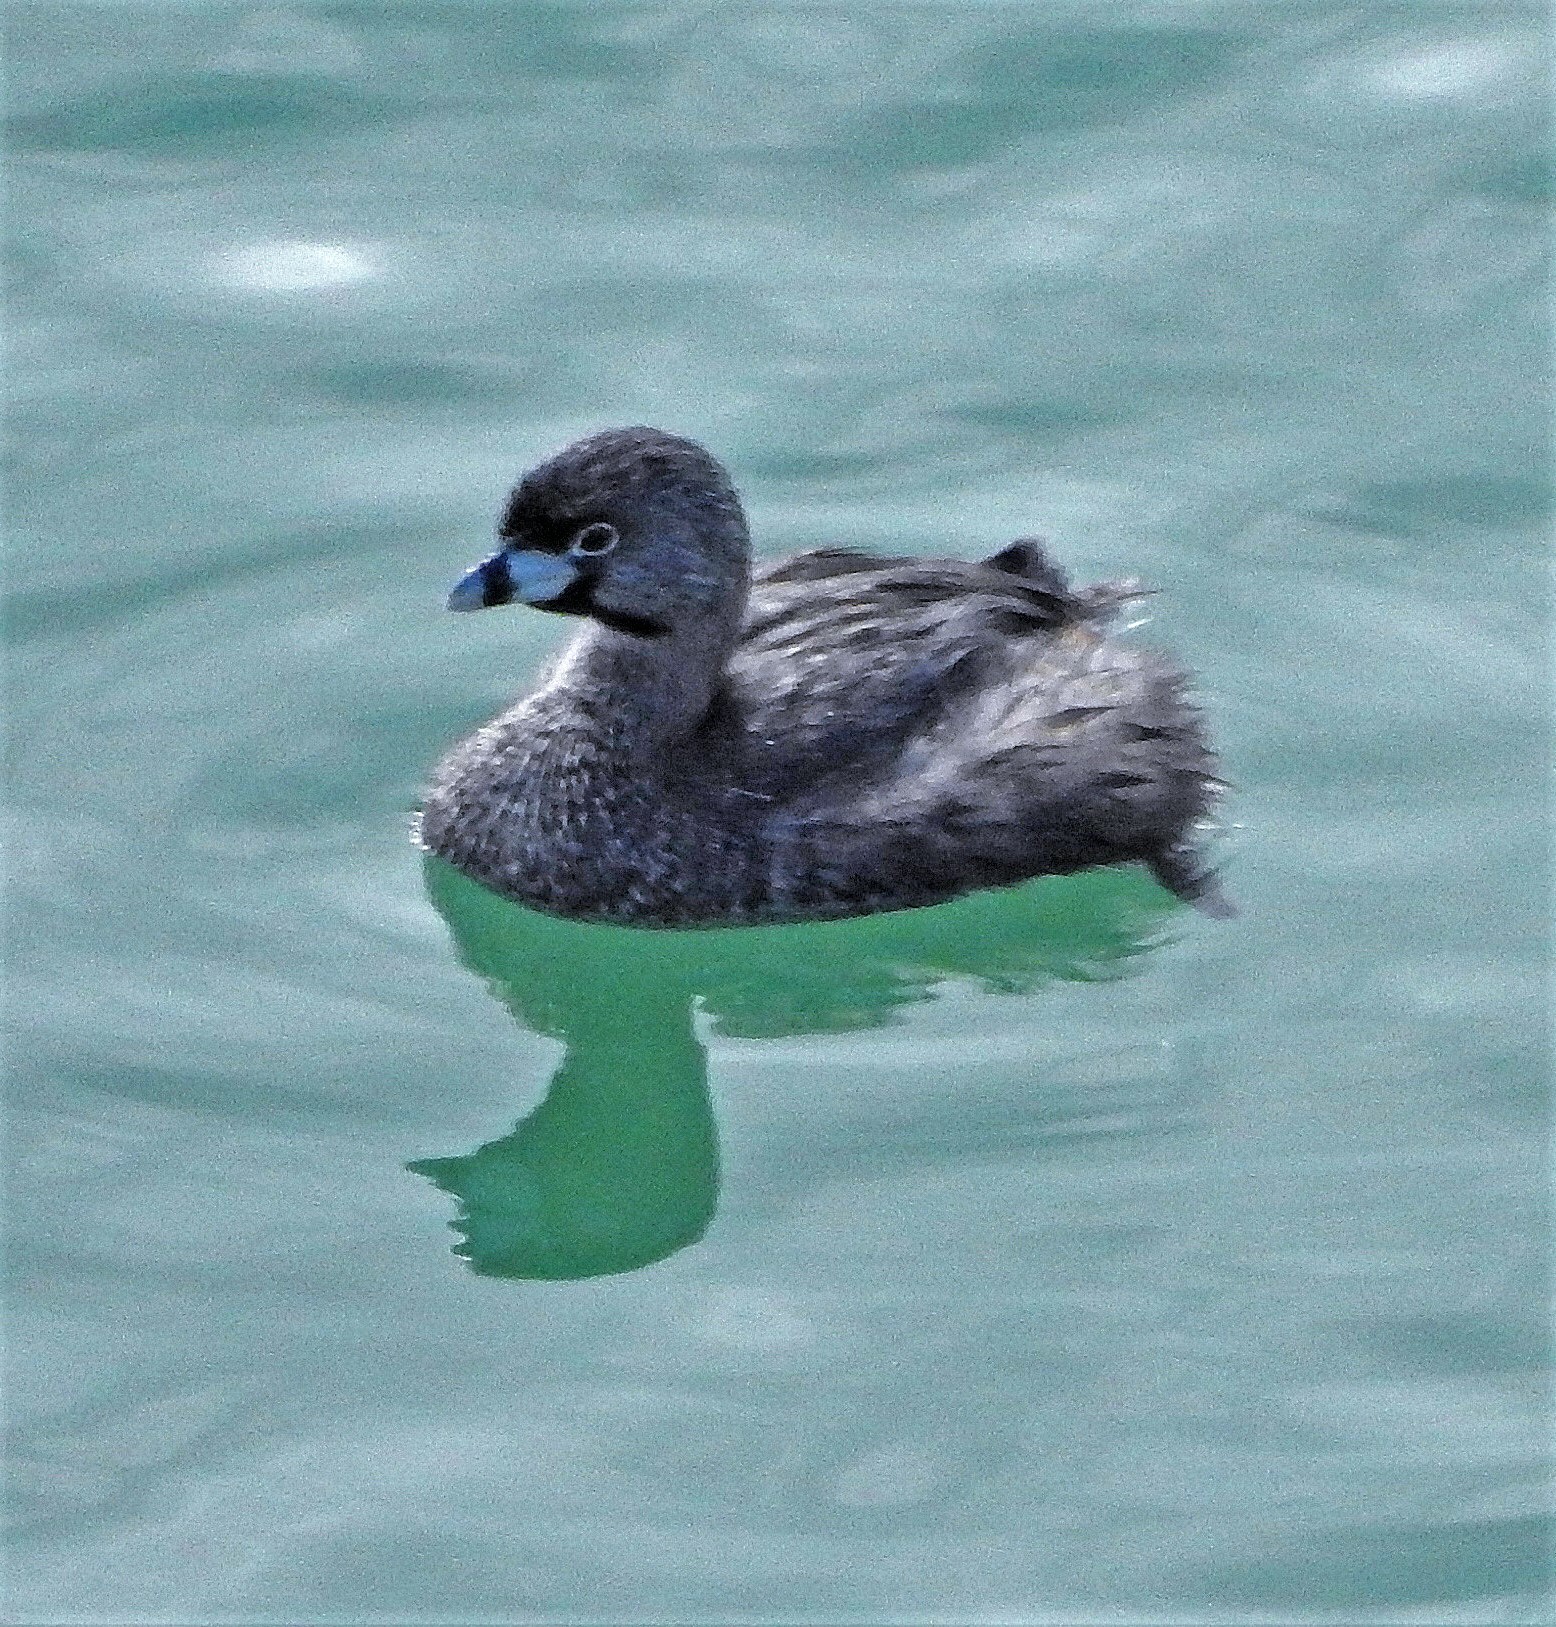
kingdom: Animalia
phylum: Chordata
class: Aves
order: Podicipediformes
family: Podicipedidae
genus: Podilymbus
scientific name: Podilymbus podiceps
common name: Pied-billed grebe
